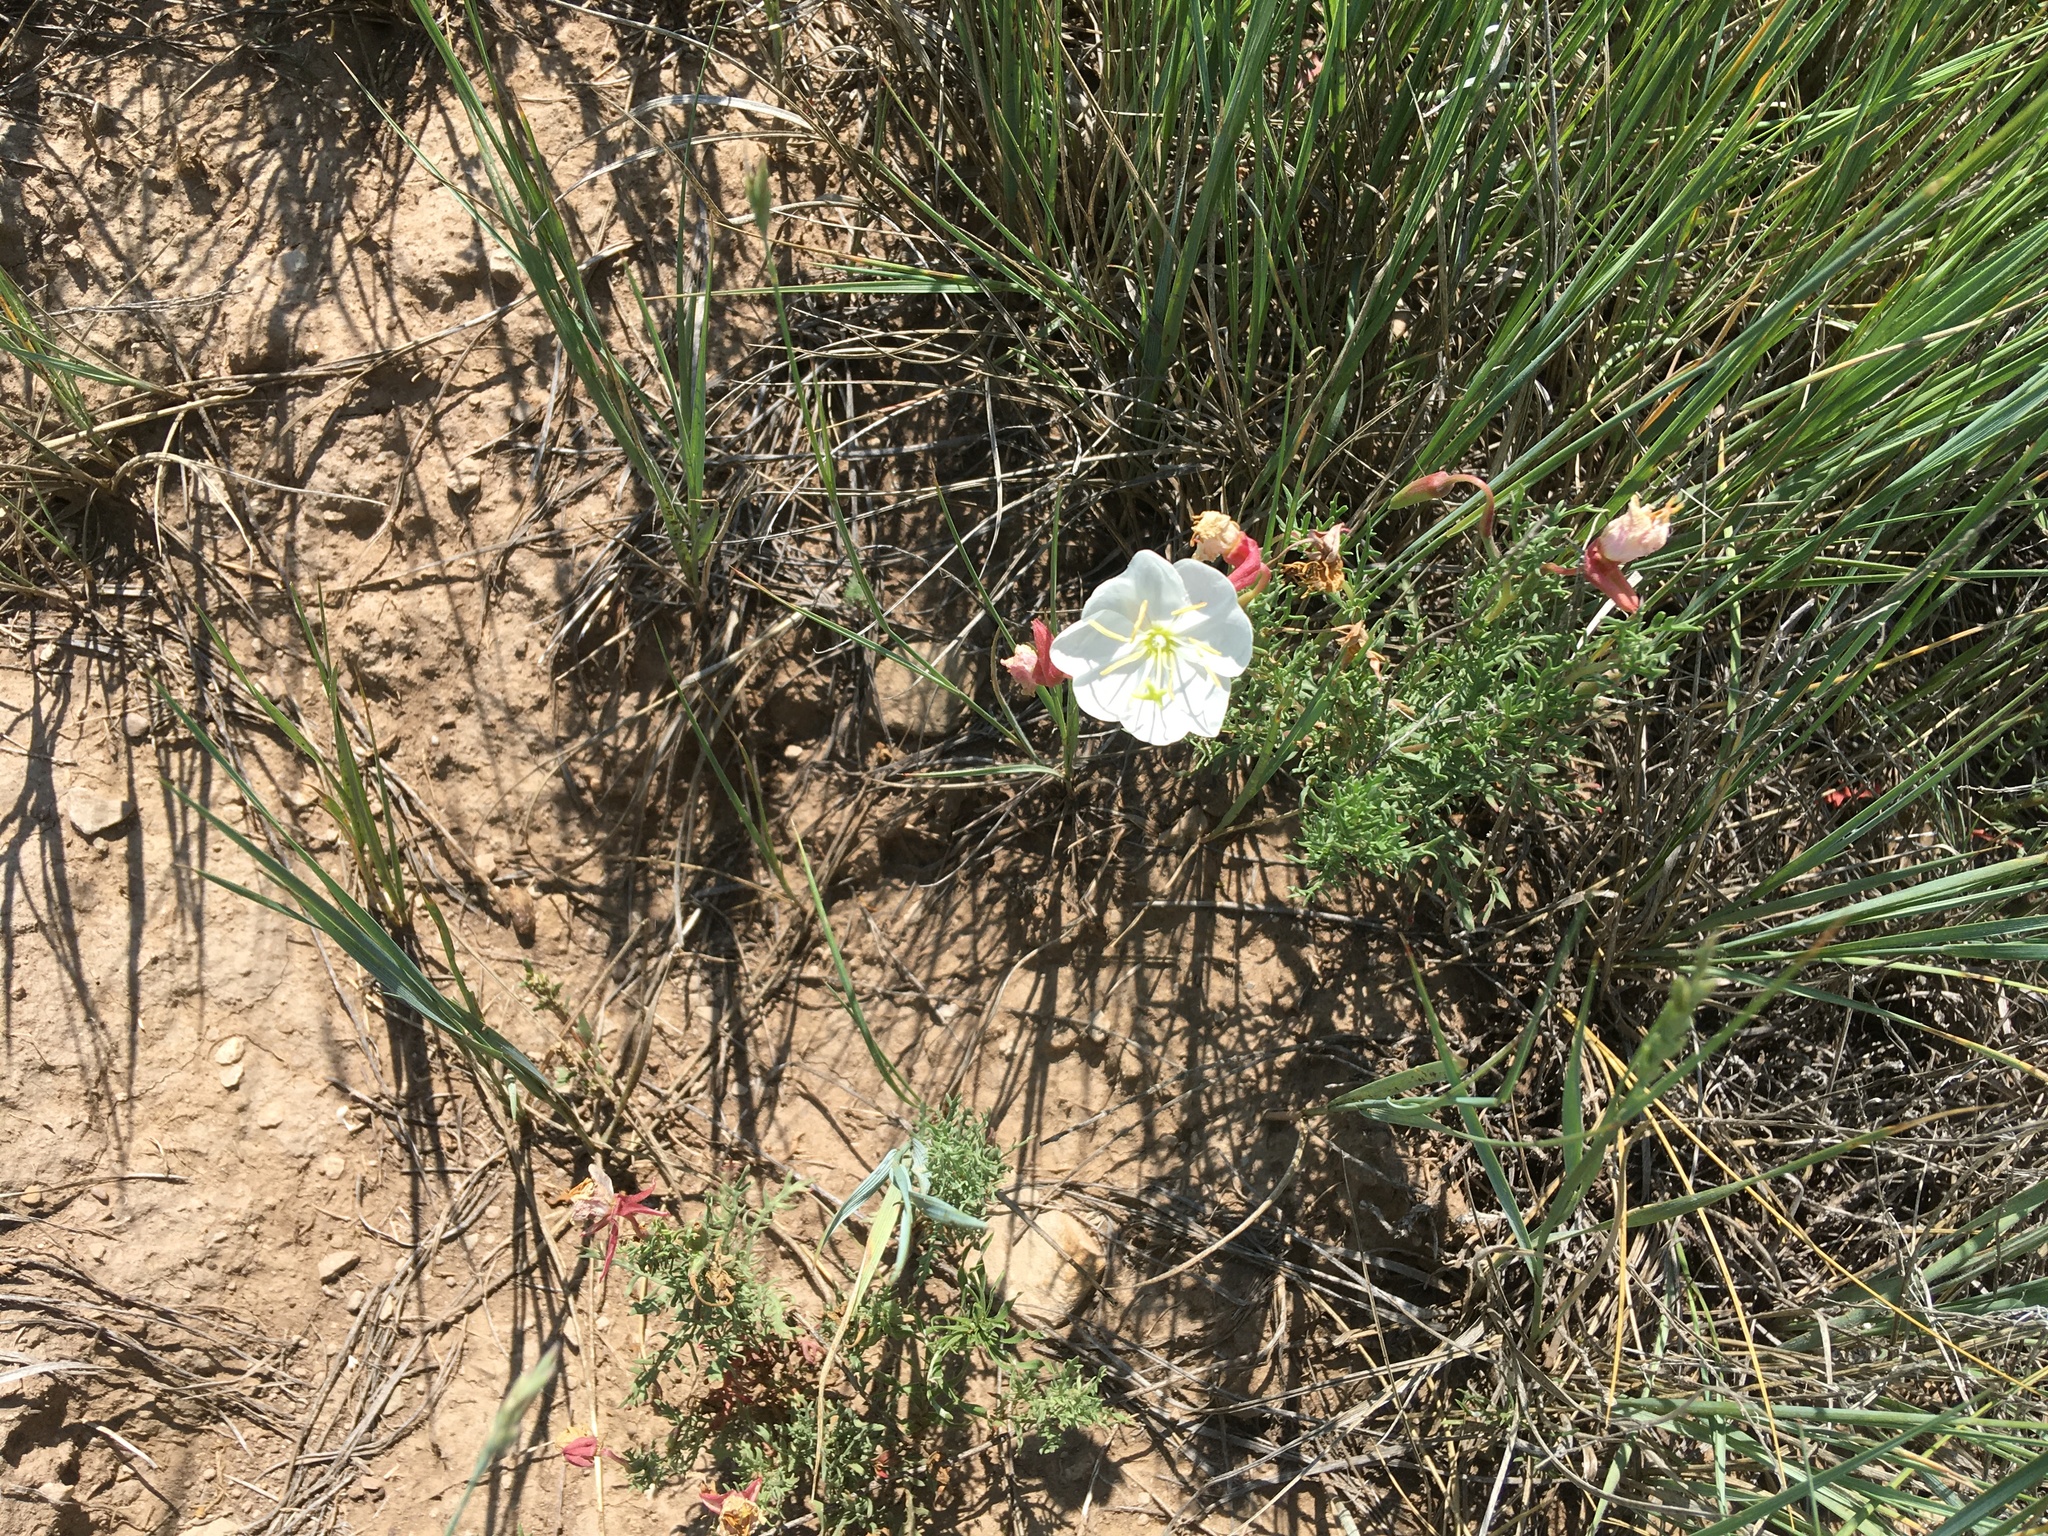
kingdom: Plantae
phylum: Tracheophyta
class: Magnoliopsida
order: Myrtales
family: Onagraceae
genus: Oenothera
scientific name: Oenothera coronopifolia
